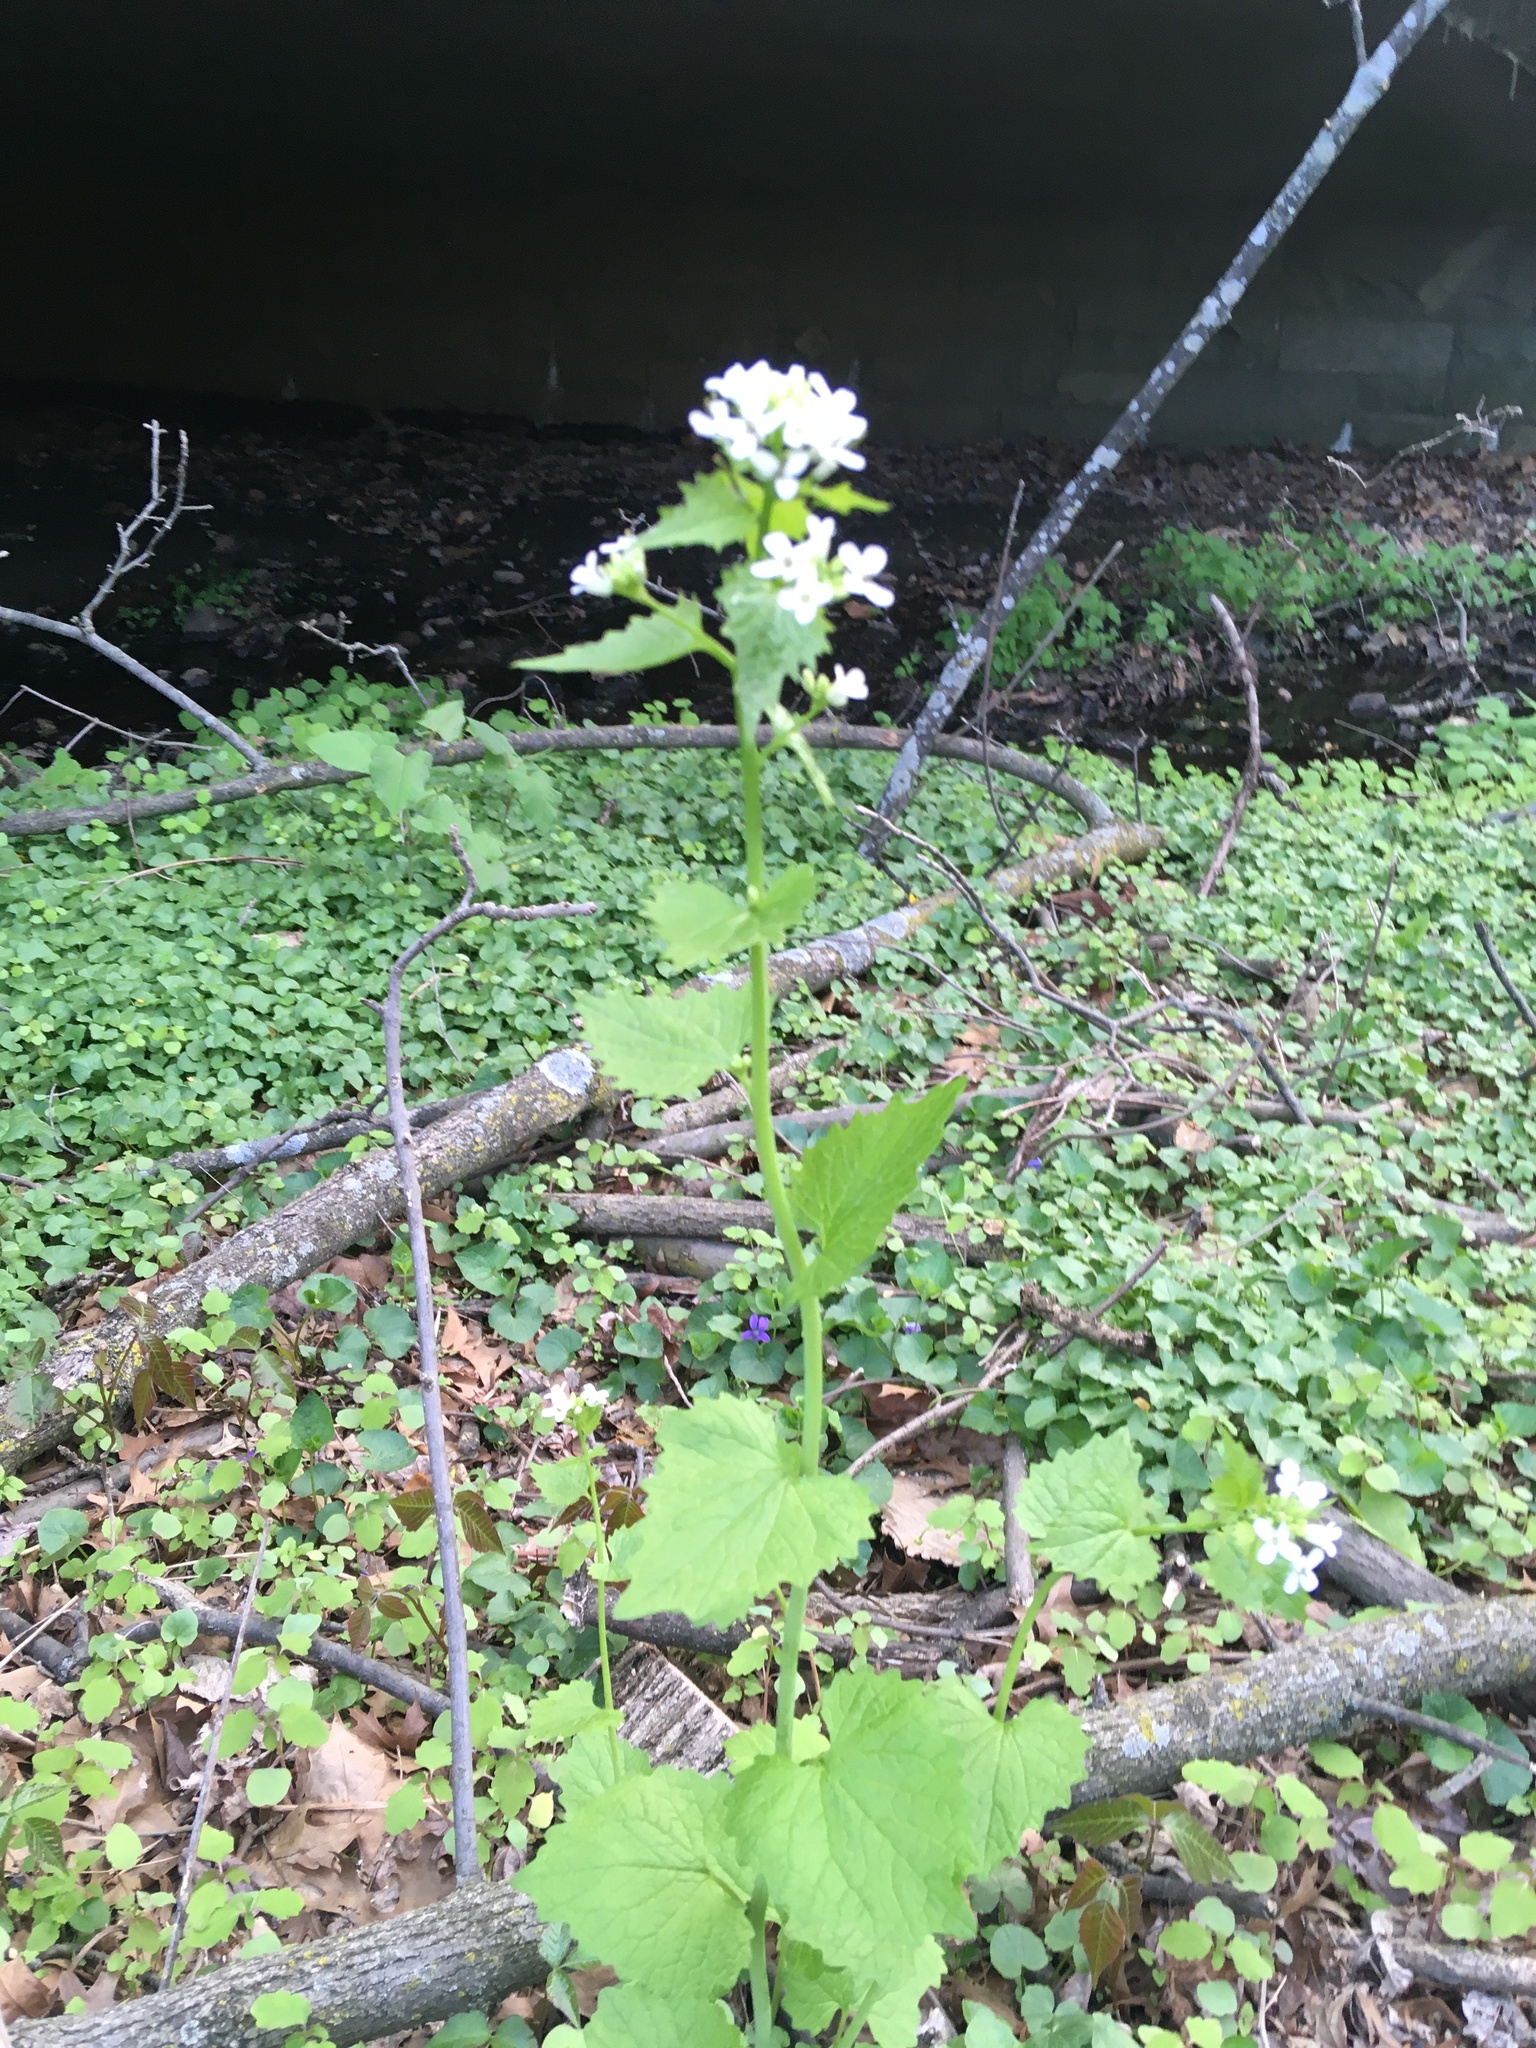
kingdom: Plantae
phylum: Tracheophyta
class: Magnoliopsida
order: Brassicales
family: Brassicaceae
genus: Alliaria
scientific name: Alliaria petiolata
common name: Garlic mustard
